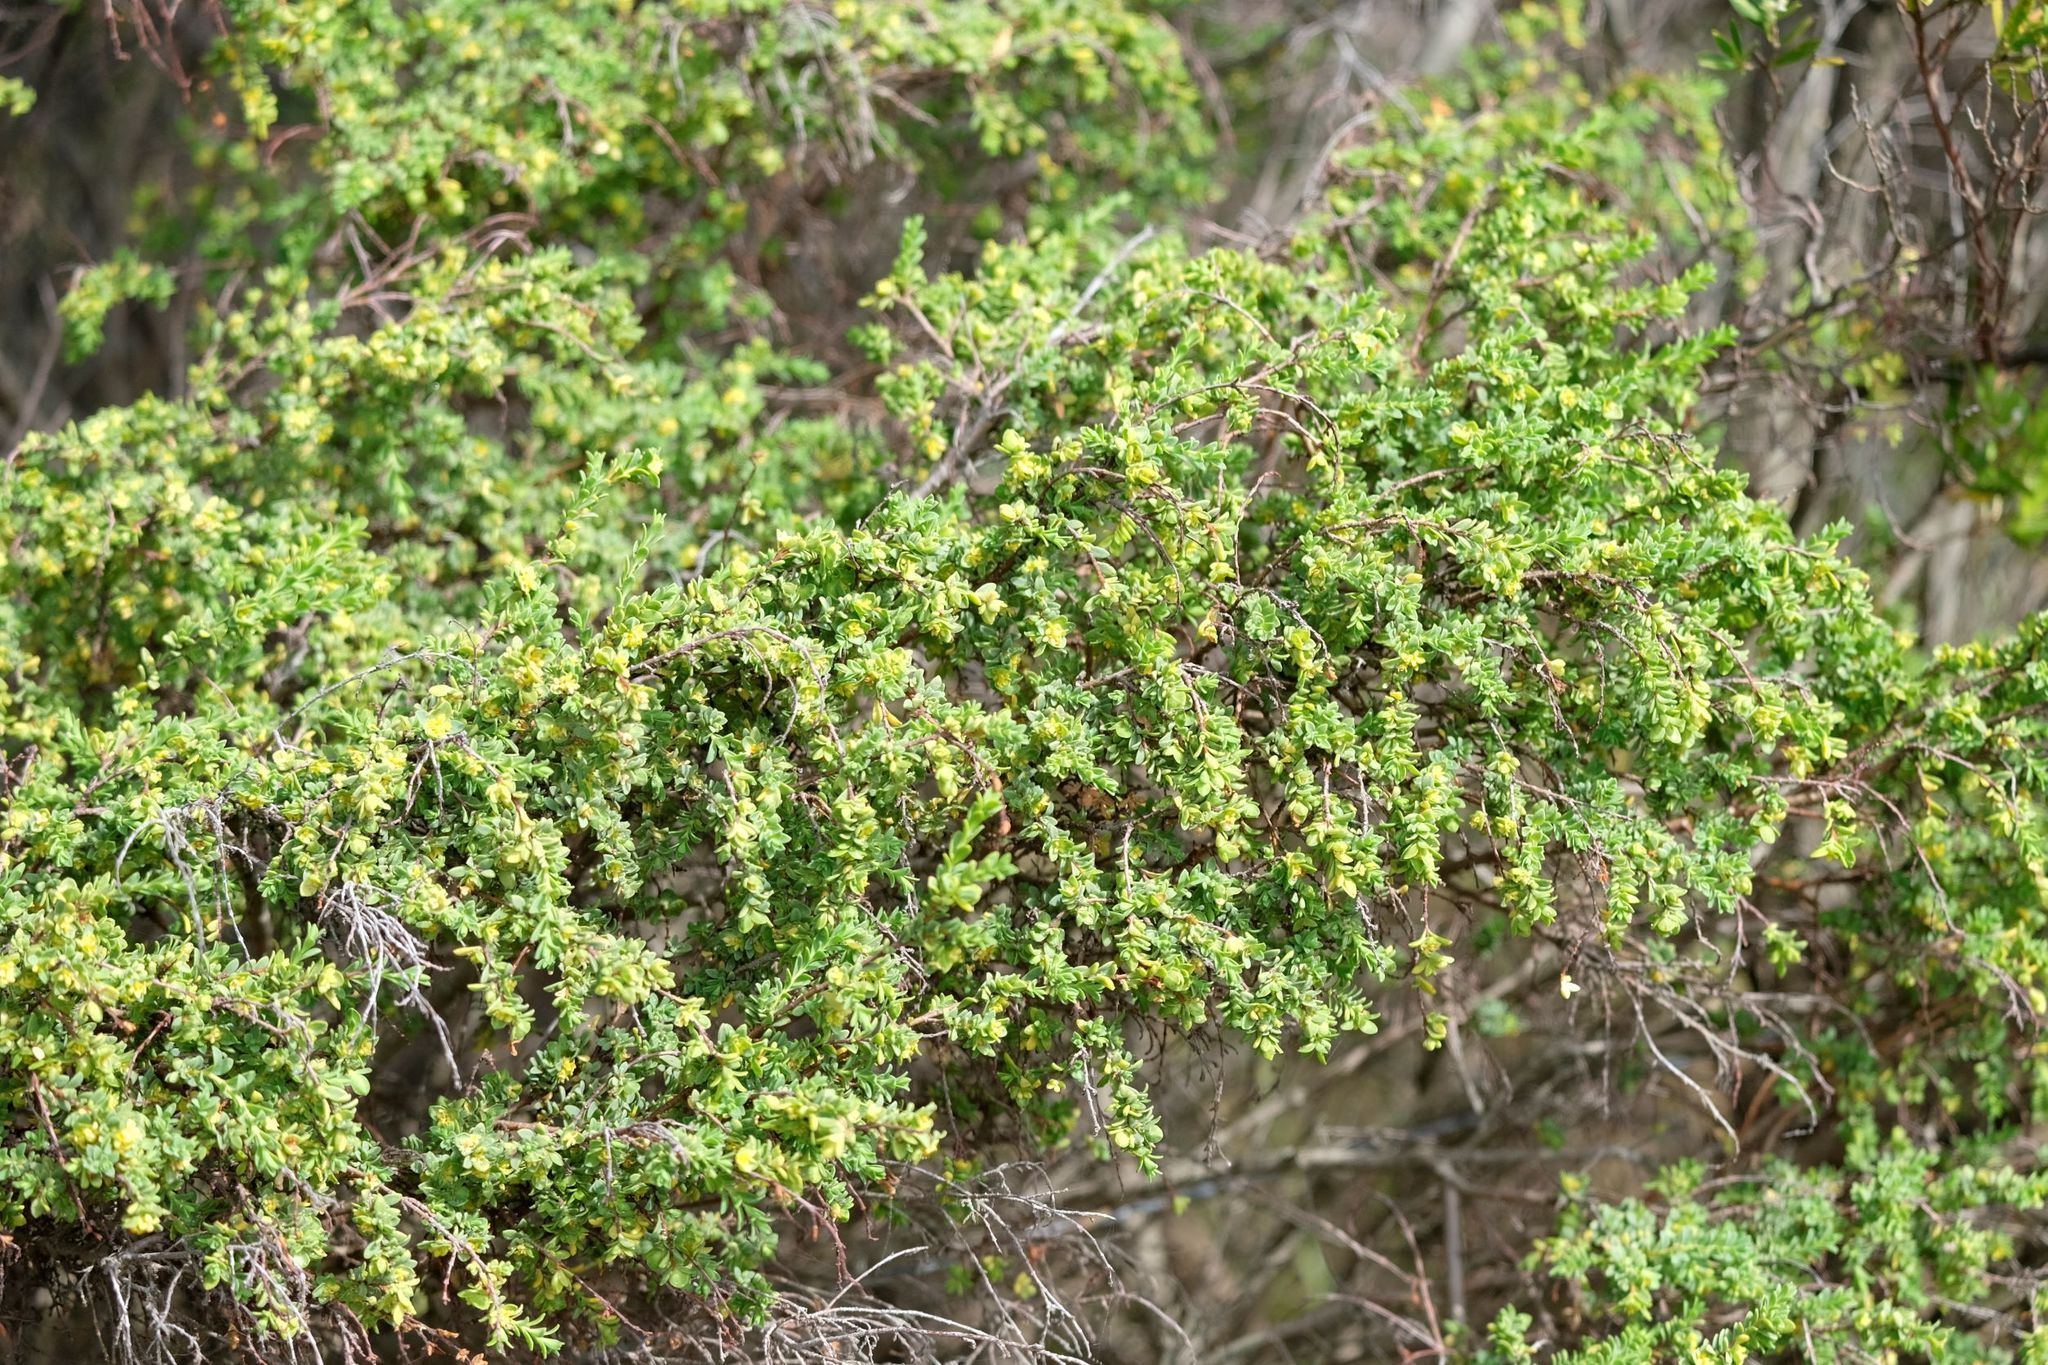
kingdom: Plantae
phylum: Tracheophyta
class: Magnoliopsida
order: Malvales
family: Thymelaeaceae
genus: Pimelea
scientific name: Pimelea serpyllifolia
